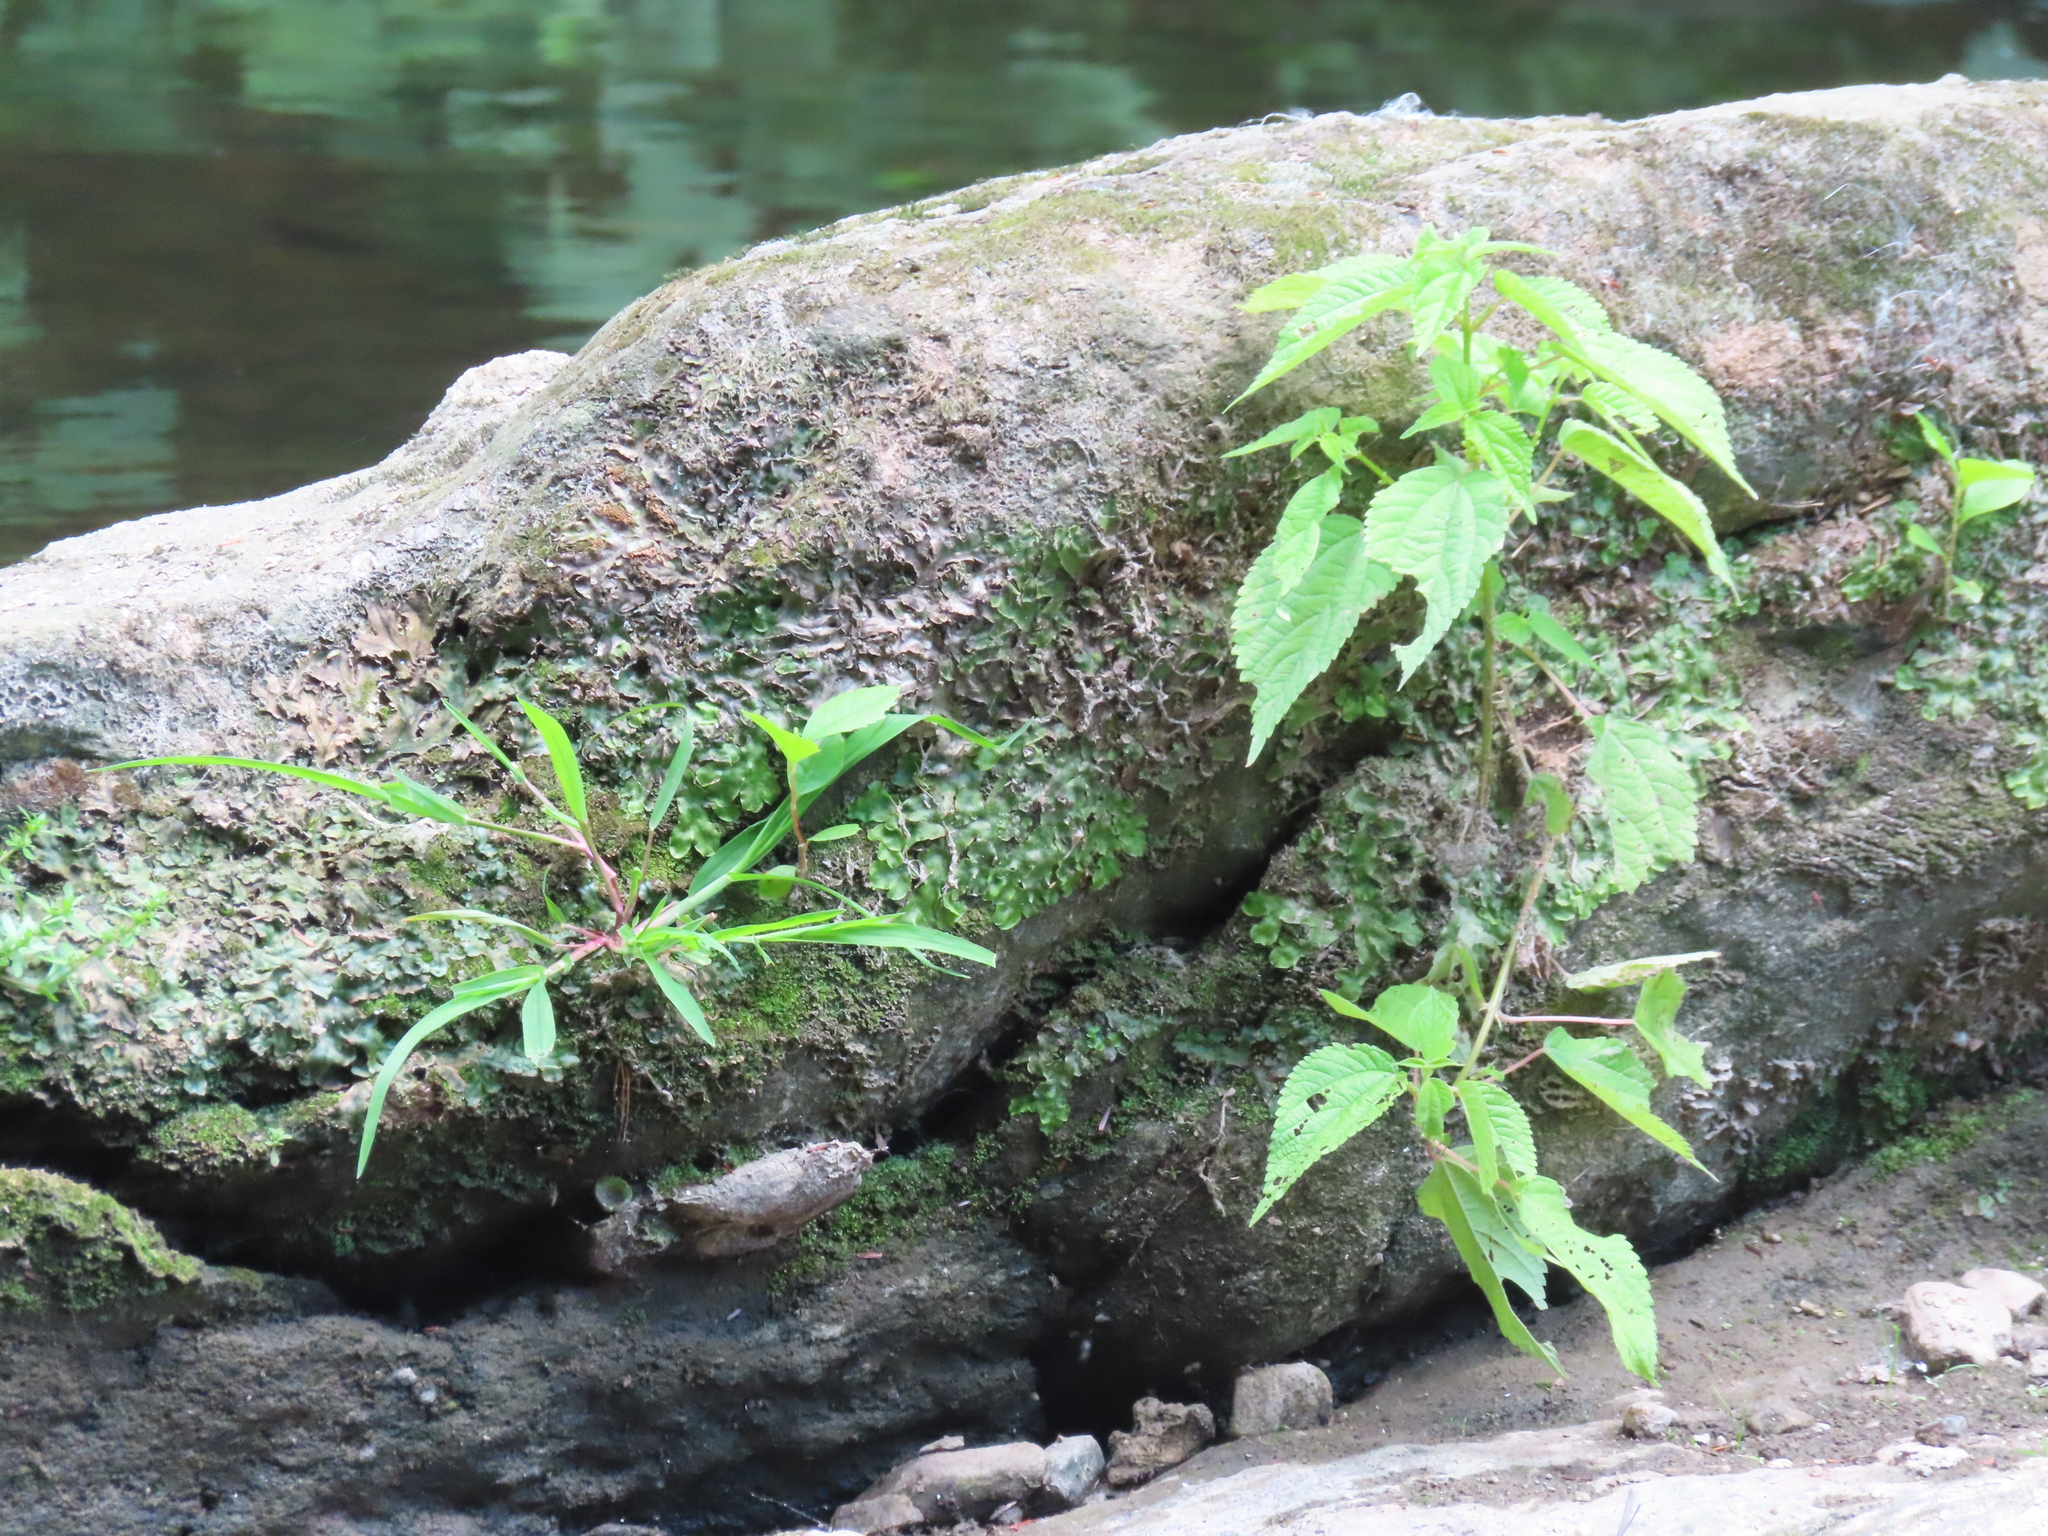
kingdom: Plantae
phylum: Tracheophyta
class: Magnoliopsida
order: Rosales
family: Urticaceae
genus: Boehmeria
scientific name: Boehmeria cylindrica
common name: Bog-hemp
